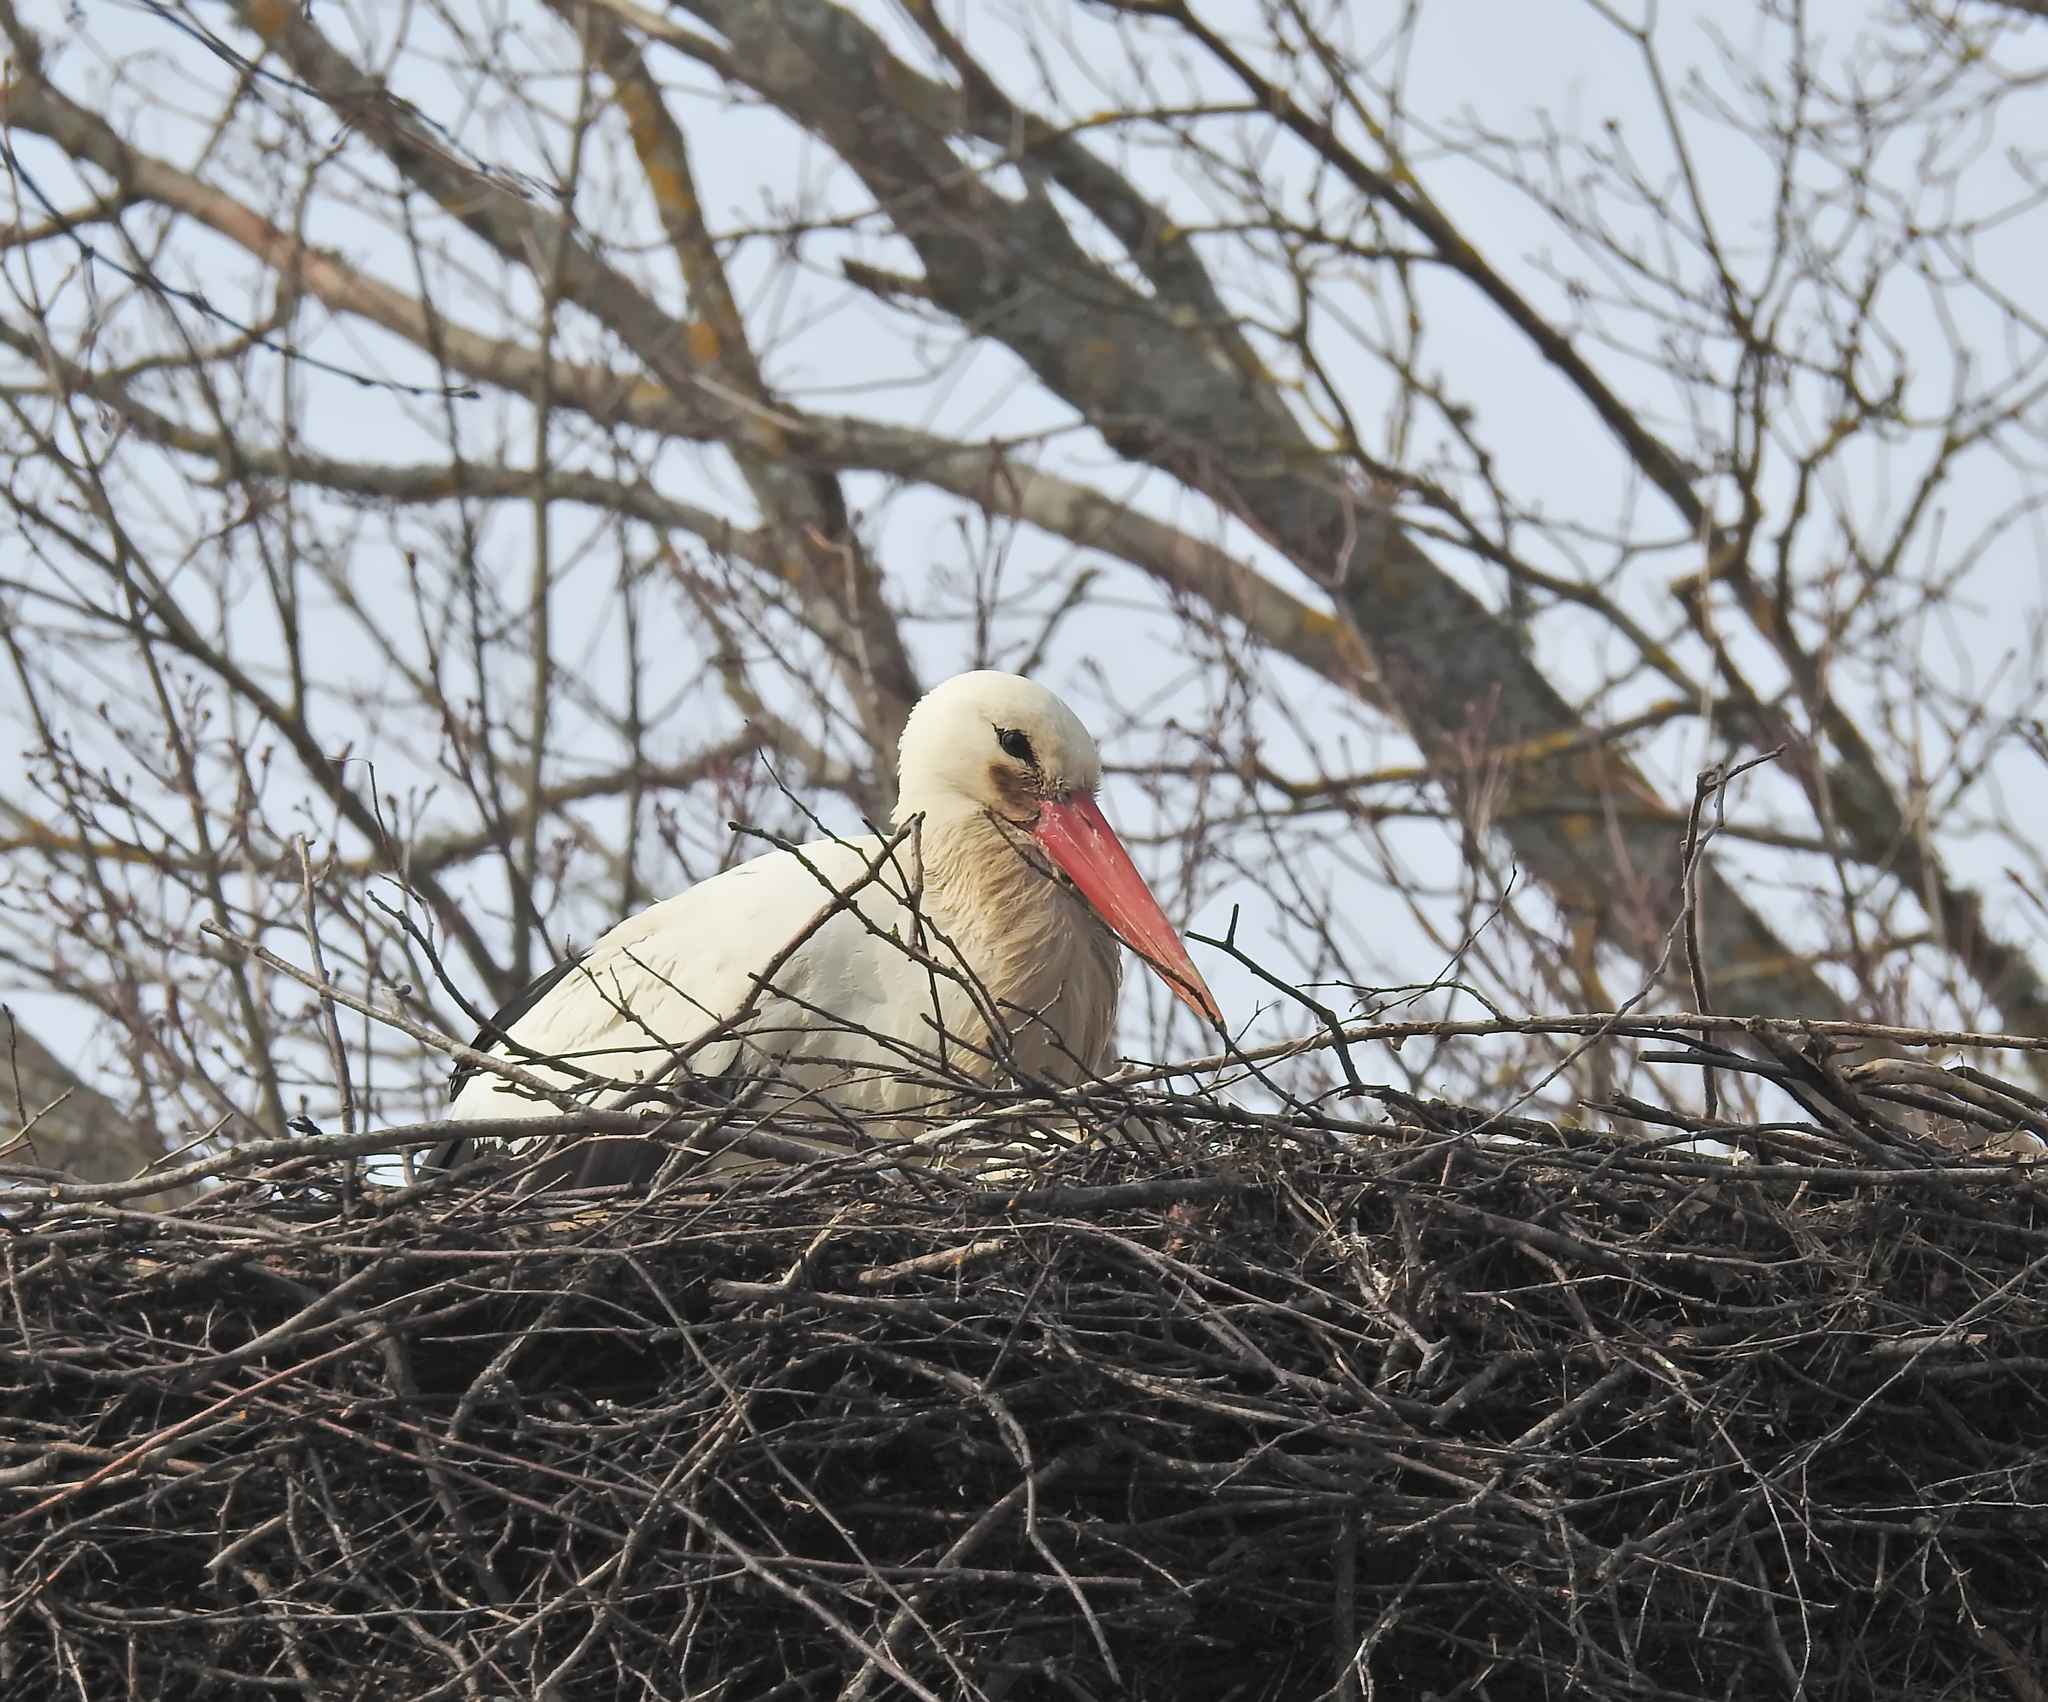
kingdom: Animalia
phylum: Chordata
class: Aves
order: Ciconiiformes
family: Ciconiidae
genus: Ciconia
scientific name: Ciconia ciconia
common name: White stork
